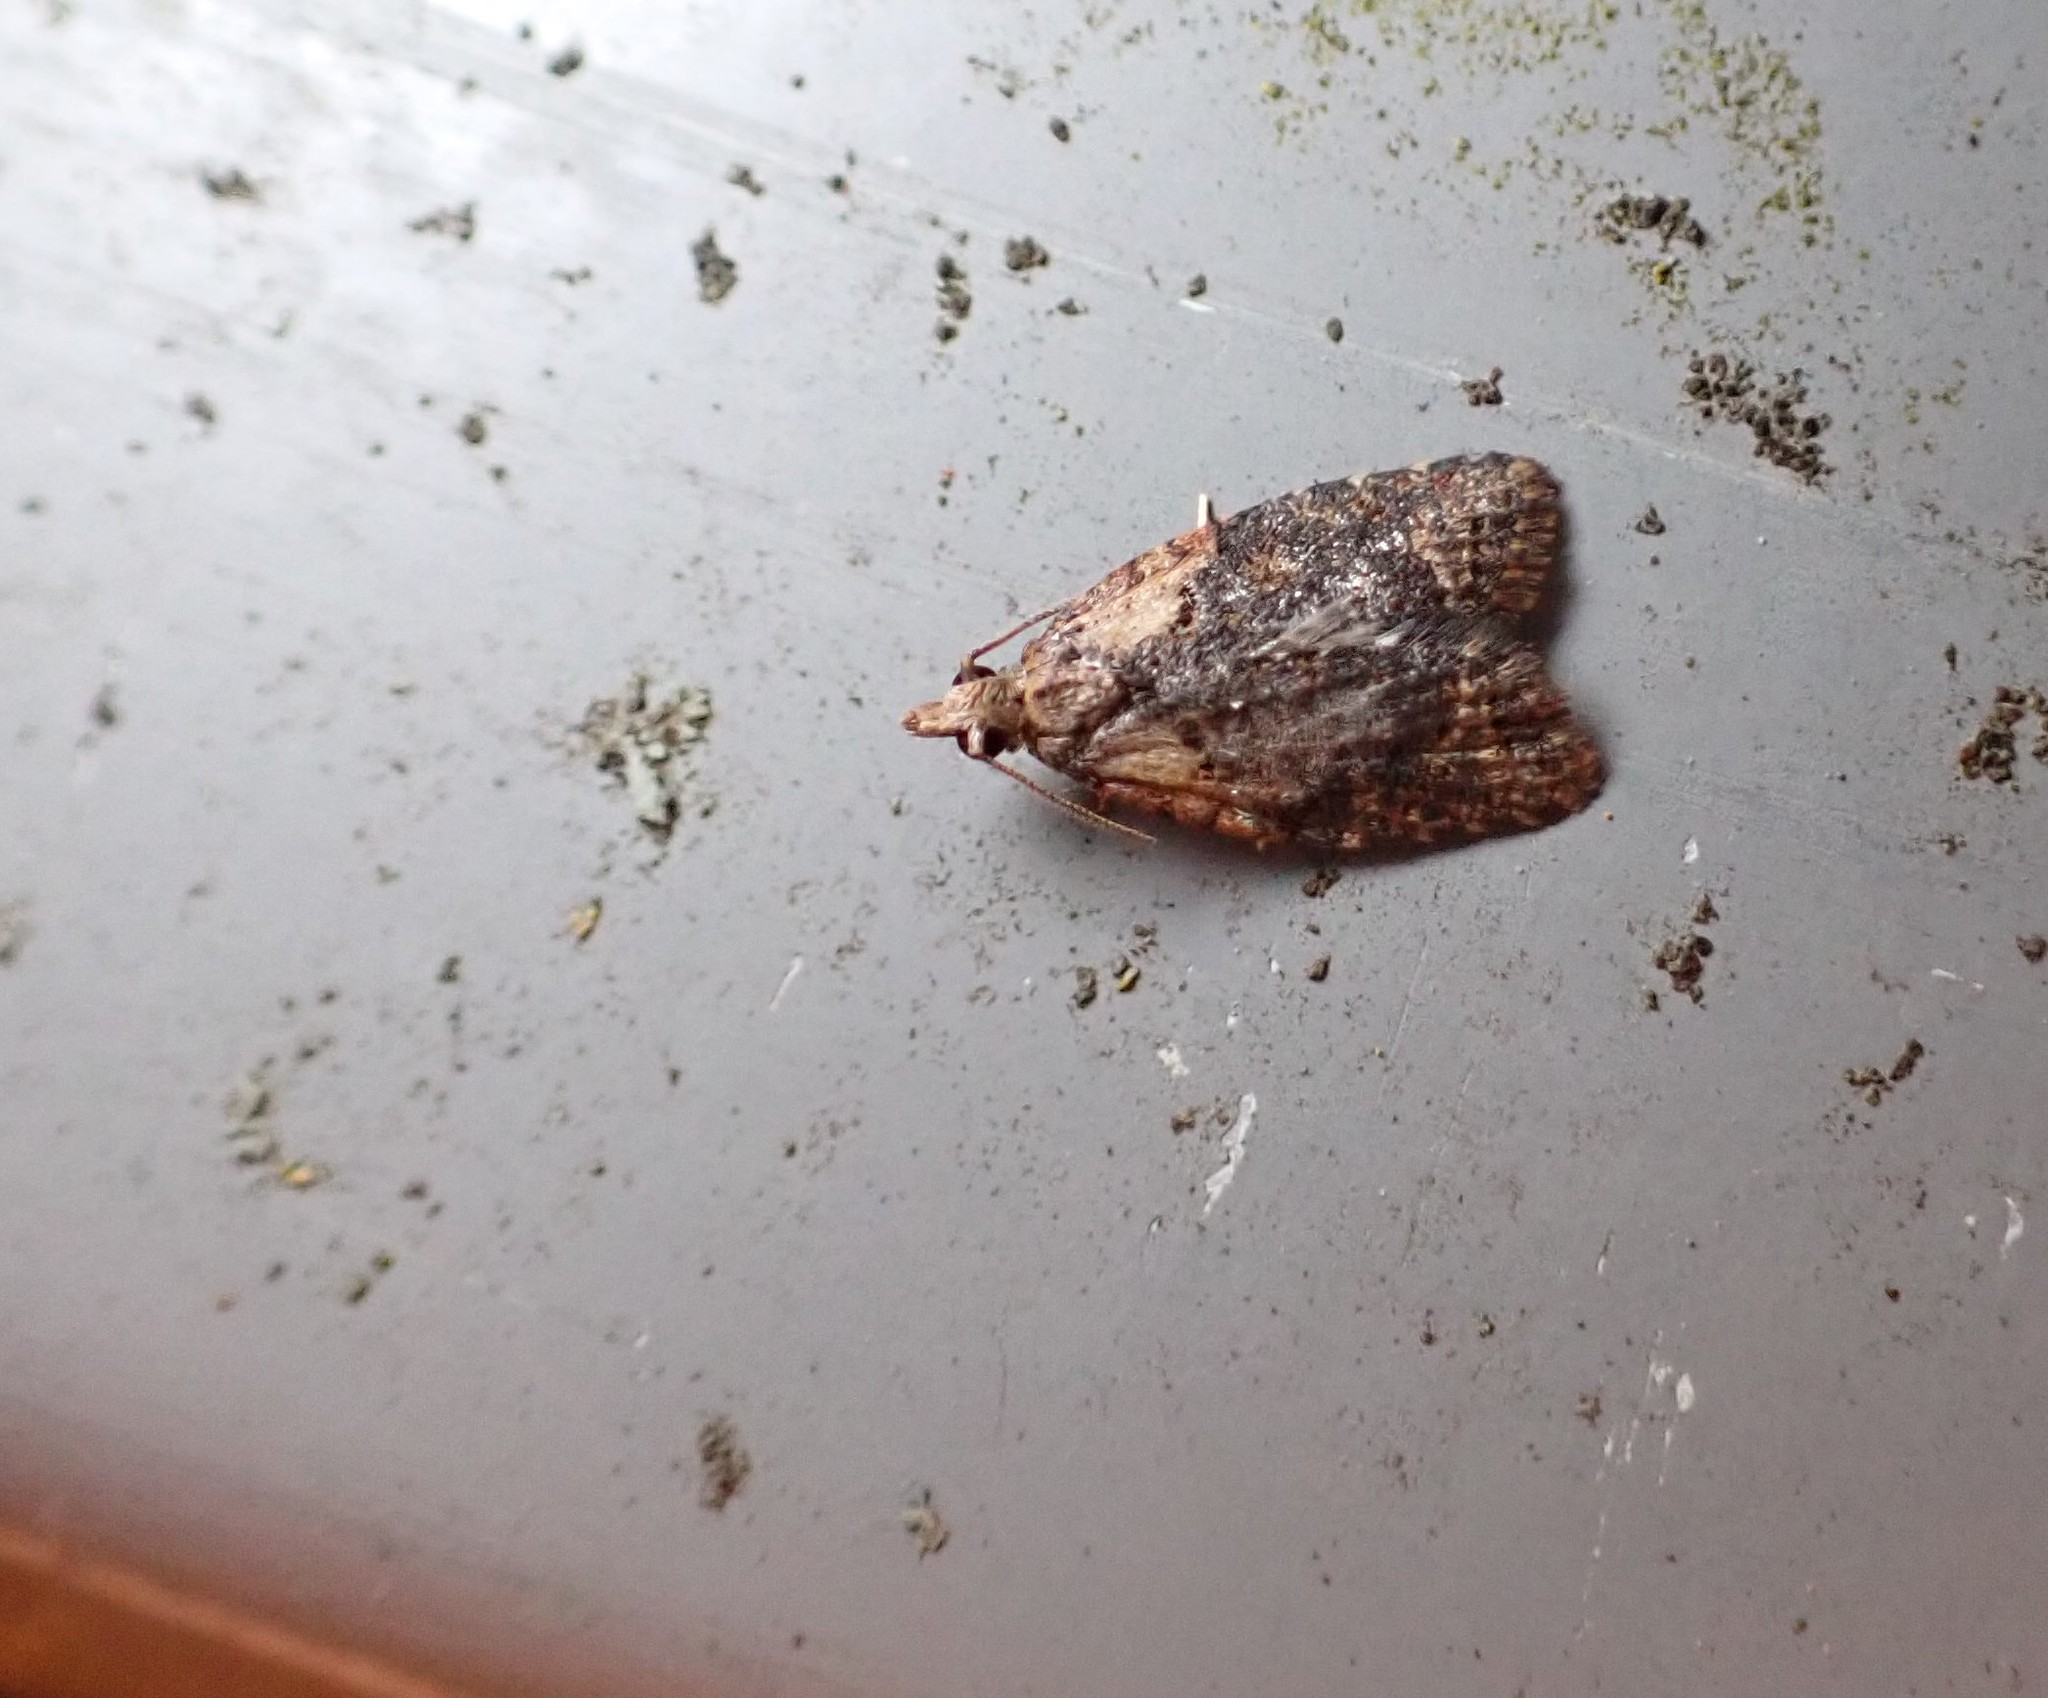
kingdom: Animalia
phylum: Arthropoda
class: Insecta
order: Lepidoptera
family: Tortricidae
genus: Capua
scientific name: Capua intractana
